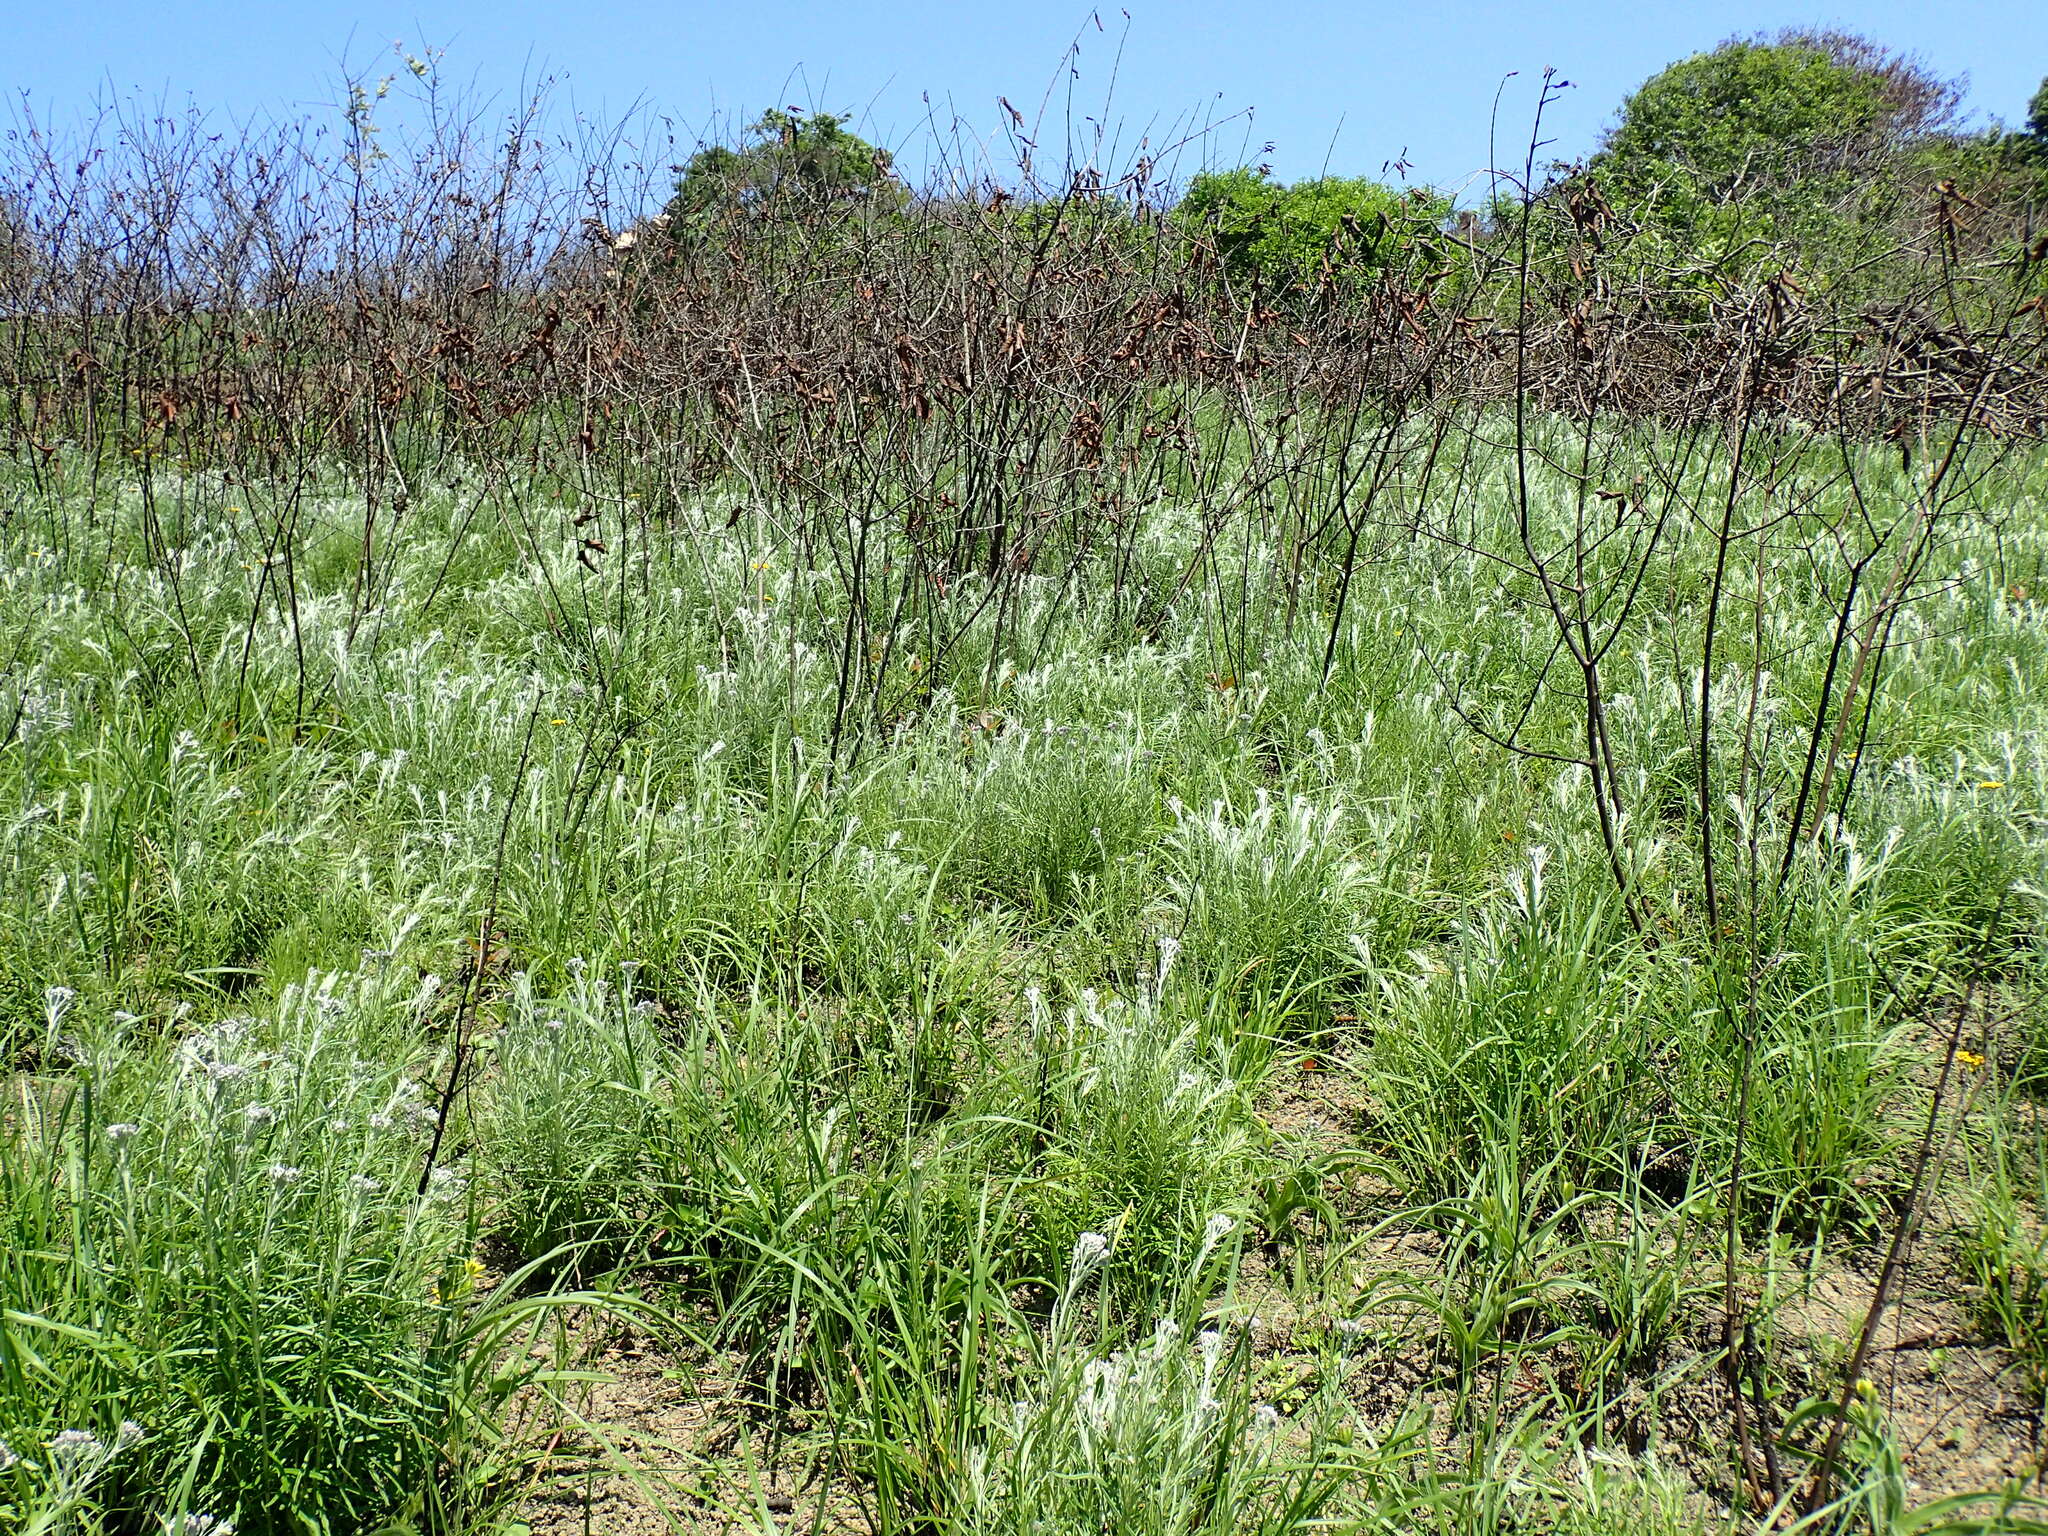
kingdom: Plantae
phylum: Tracheophyta
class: Magnoliopsida
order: Asterales
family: Asteraceae
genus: Hilliardiella
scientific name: Hilliardiella capensis
